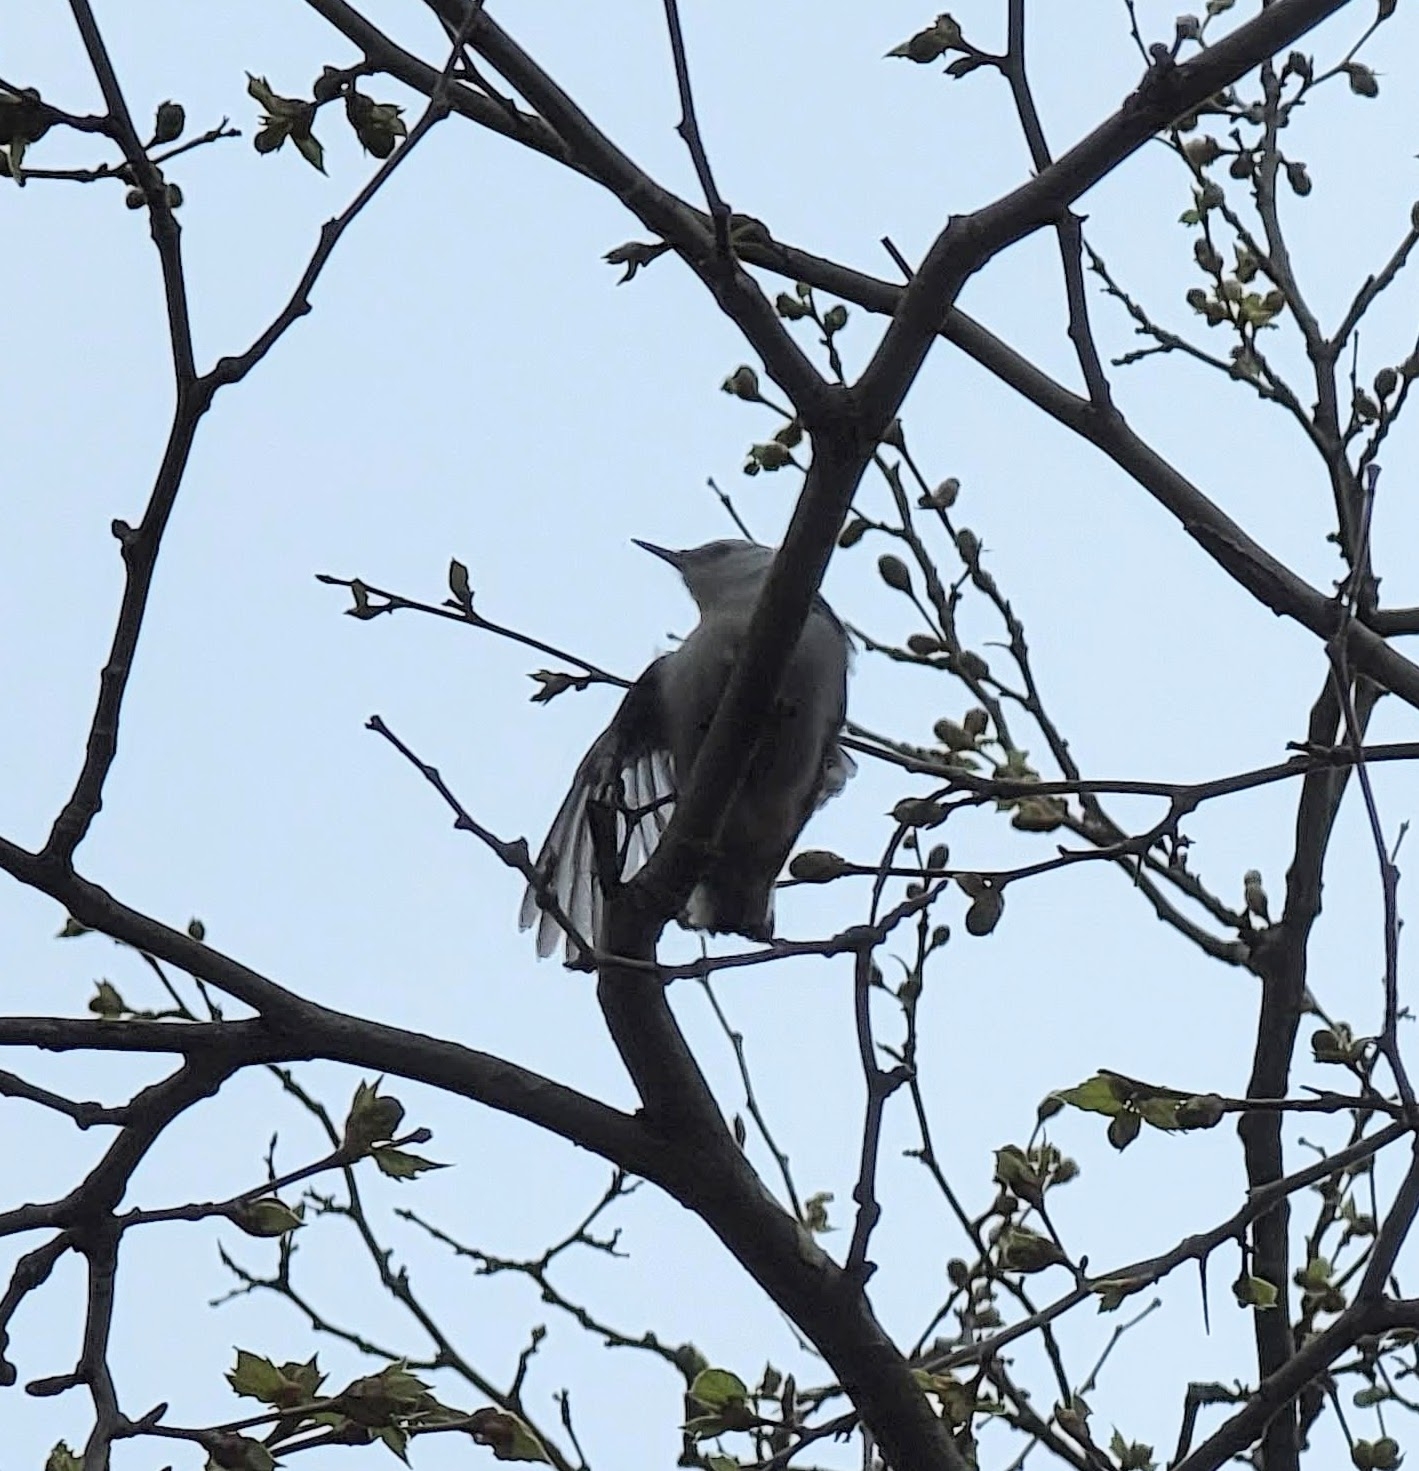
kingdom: Animalia
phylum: Chordata
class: Aves
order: Passeriformes
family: Sittidae
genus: Sitta
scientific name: Sitta carolinensis
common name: White-breasted nuthatch
